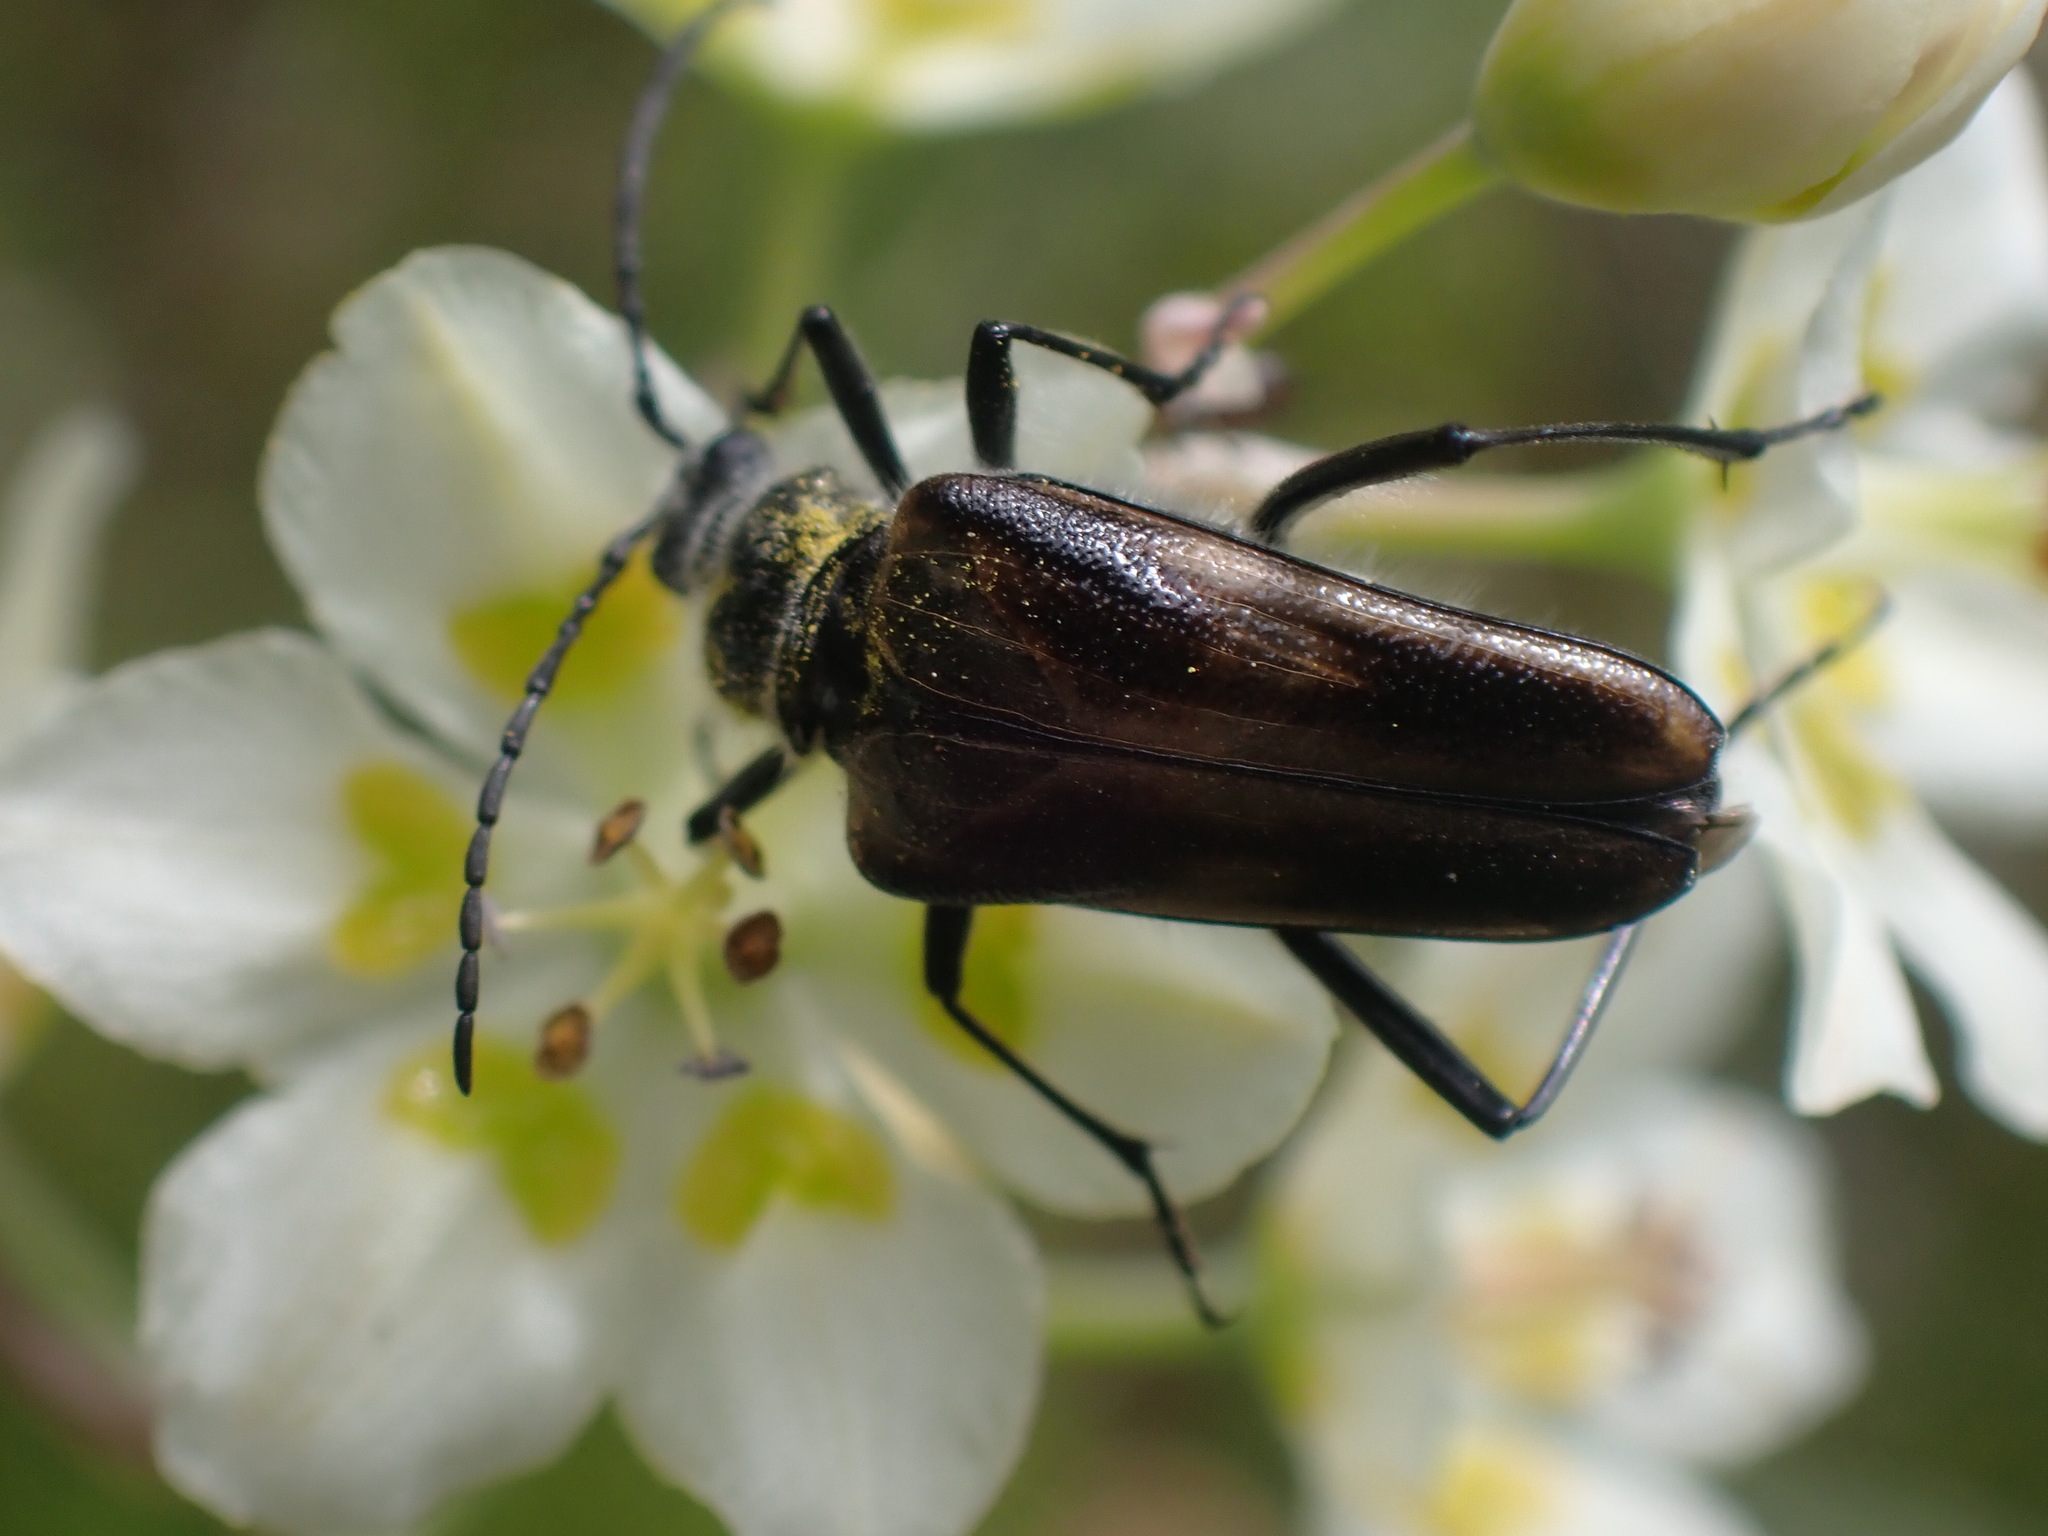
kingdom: Animalia
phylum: Arthropoda
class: Insecta
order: Coleoptera
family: Cerambycidae
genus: Pachyta
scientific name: Pachyta lamed
